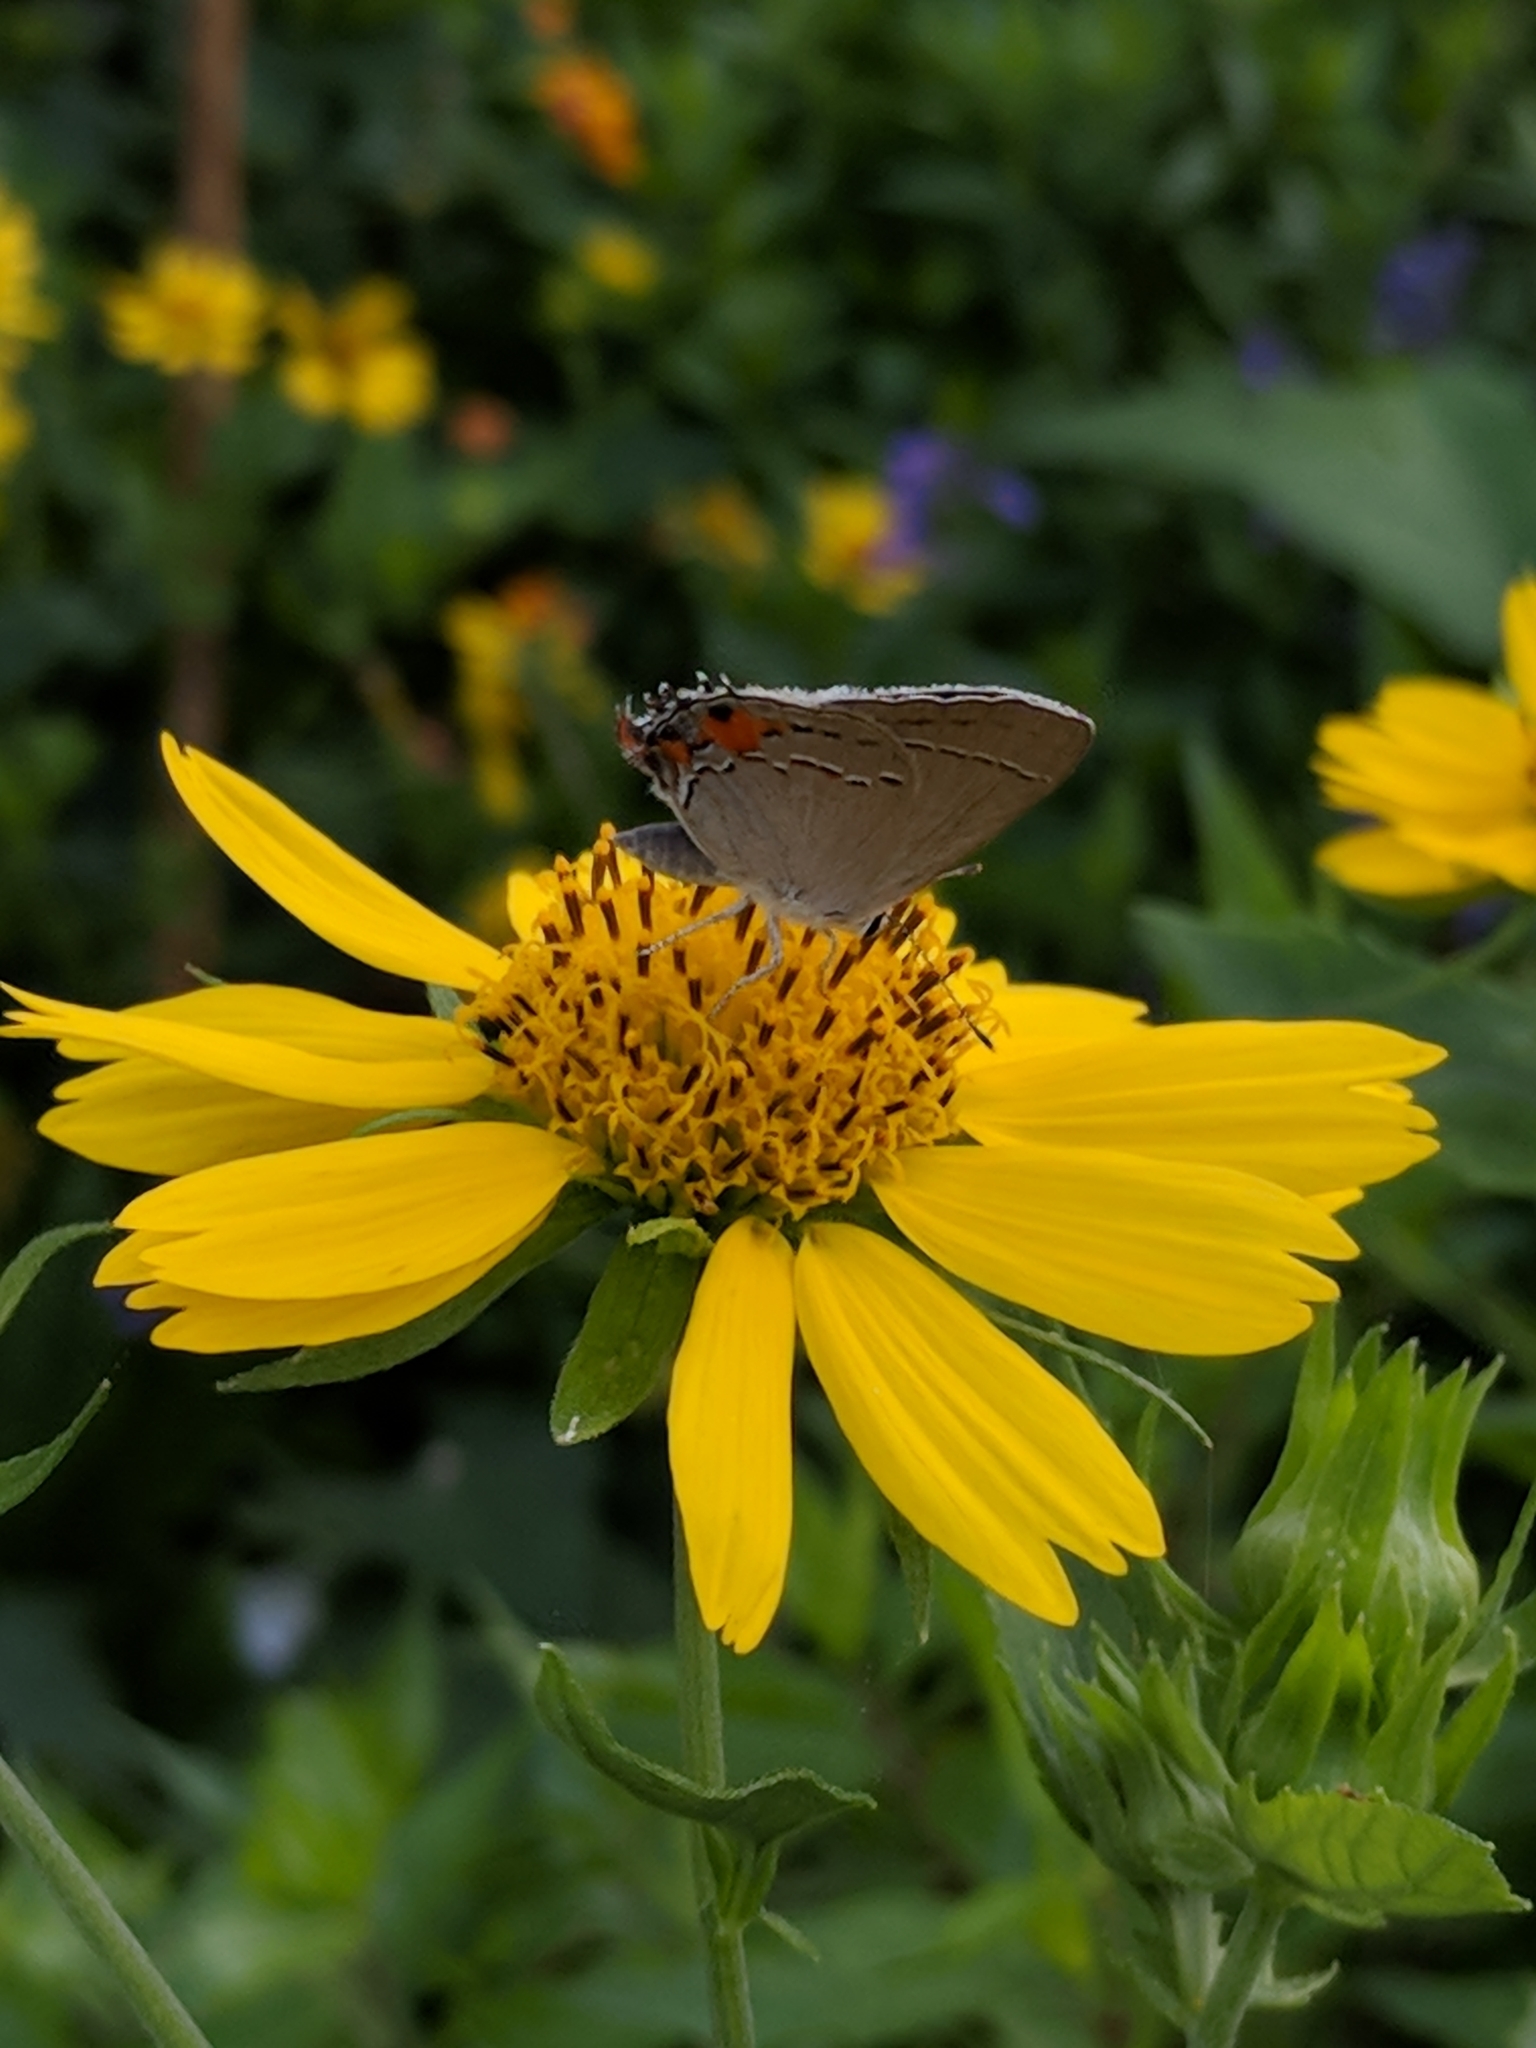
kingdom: Animalia
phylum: Arthropoda
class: Insecta
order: Lepidoptera
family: Lycaenidae
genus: Strymon
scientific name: Strymon melinus
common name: Gray hairstreak
